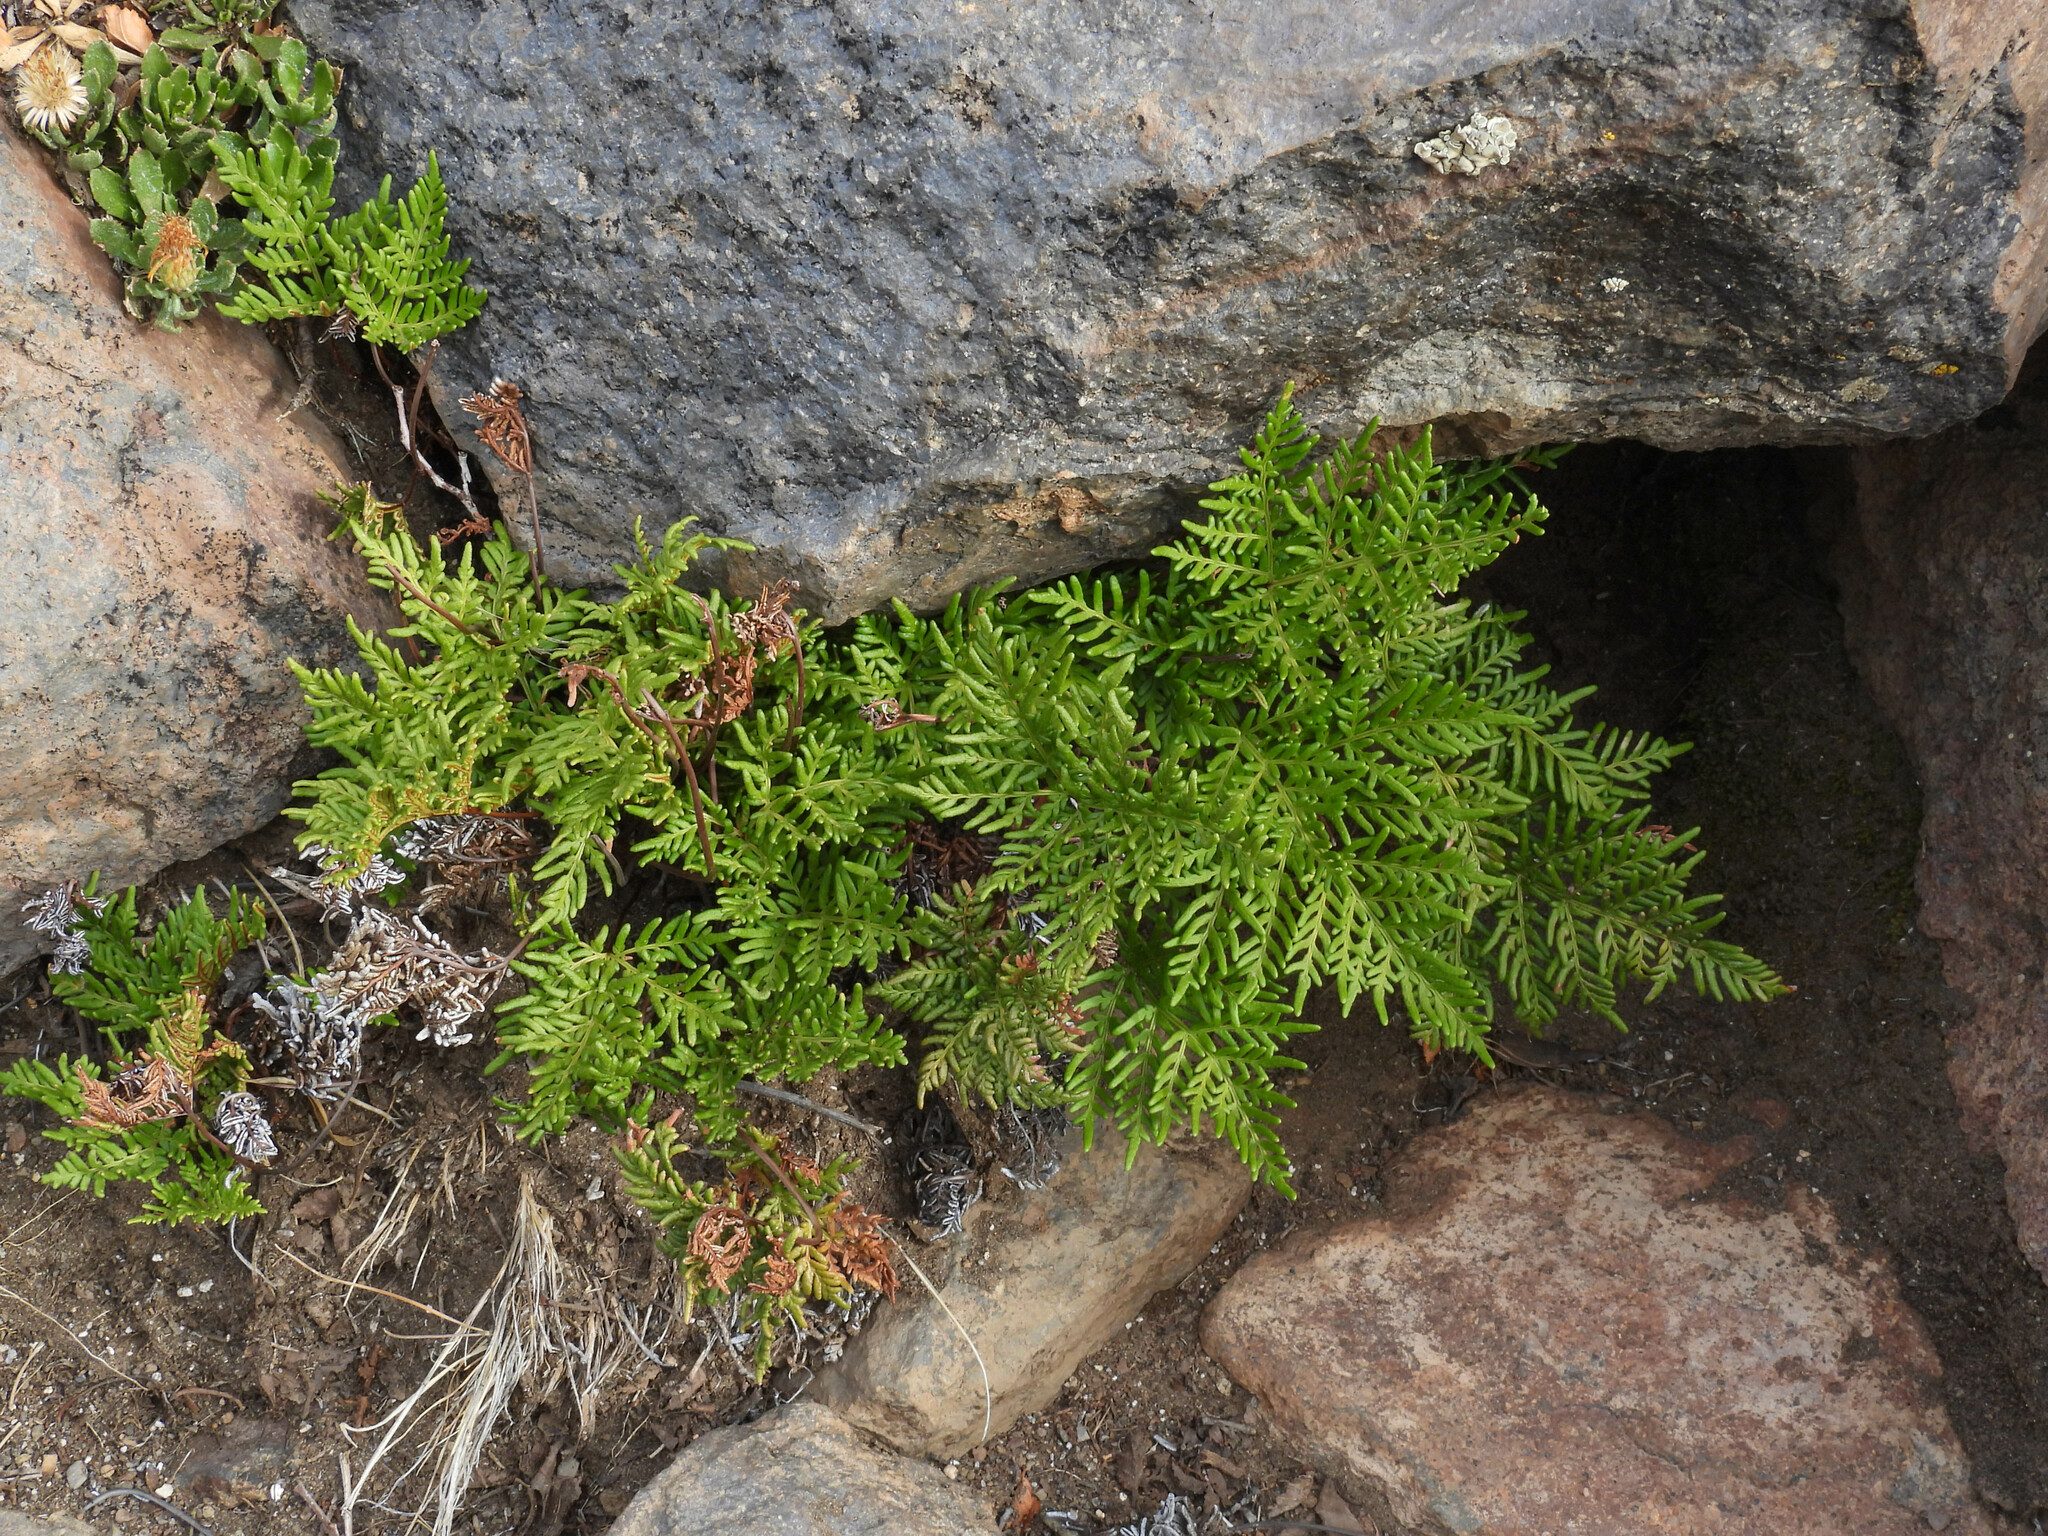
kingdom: Plantae
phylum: Tracheophyta
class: Polypodiopsida
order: Polypodiales
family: Pteridaceae
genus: Cheilanthes
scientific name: Cheilanthes glauca
